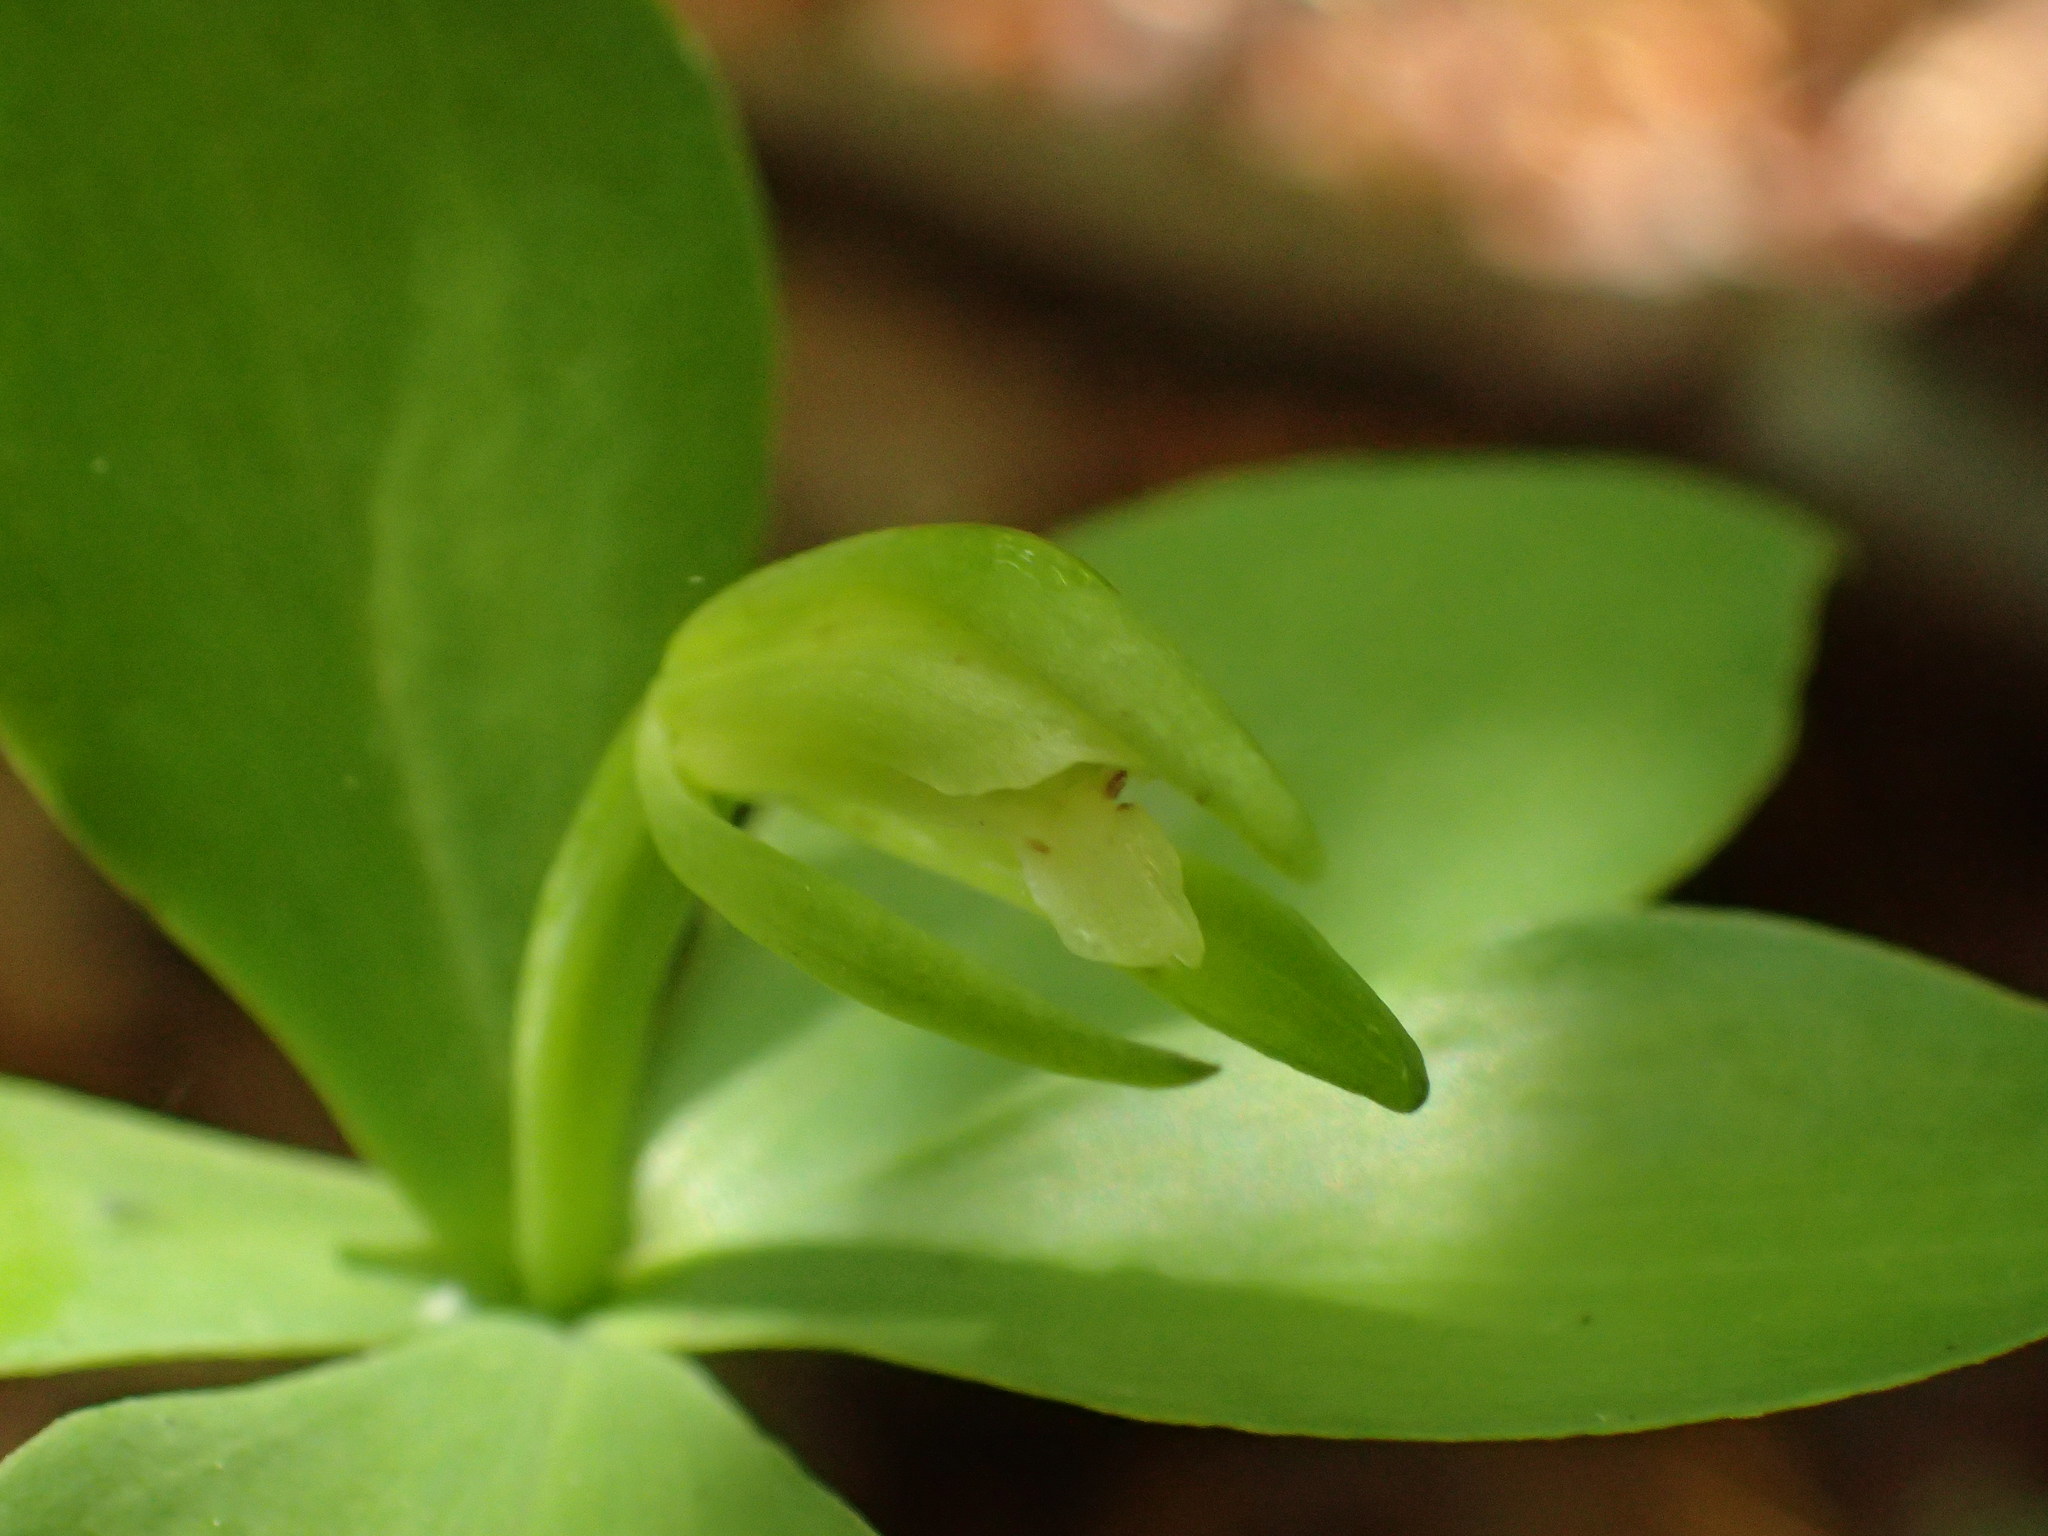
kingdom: Plantae
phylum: Tracheophyta
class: Liliopsida
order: Asparagales
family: Orchidaceae
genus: Isotria
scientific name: Isotria medeoloides
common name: Small whorled pogonia
